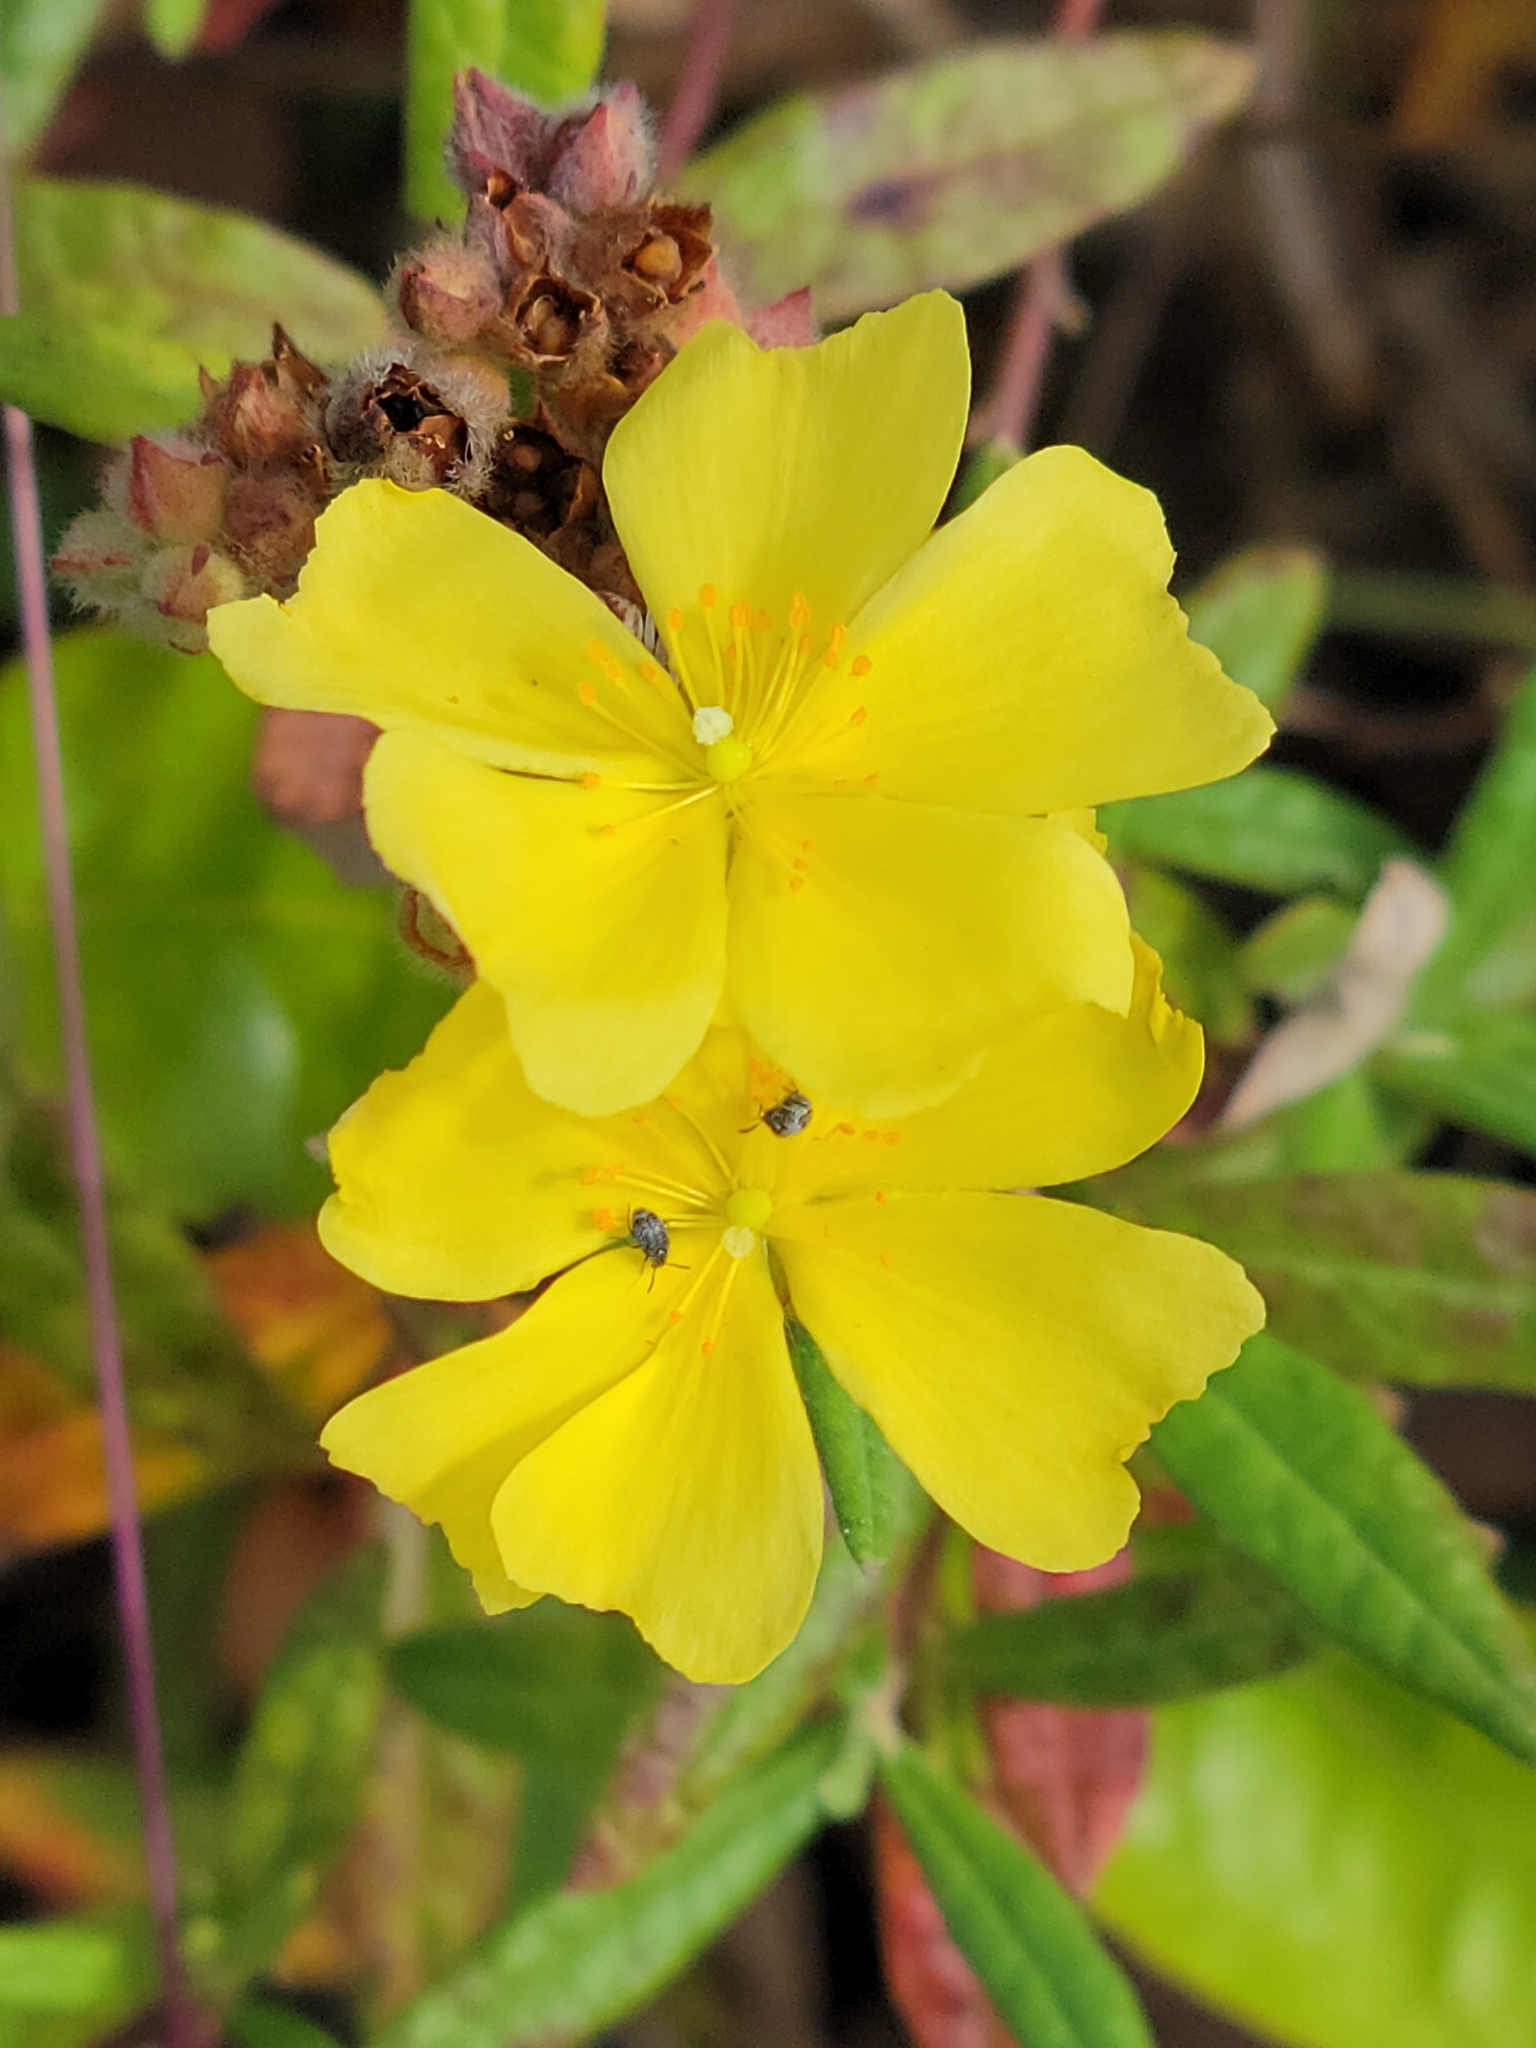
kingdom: Plantae
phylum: Tracheophyta
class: Magnoliopsida
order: Malvales
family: Cistaceae
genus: Crocanthemum
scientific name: Crocanthemum corymbosum
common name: Pinebarren sun-rose
